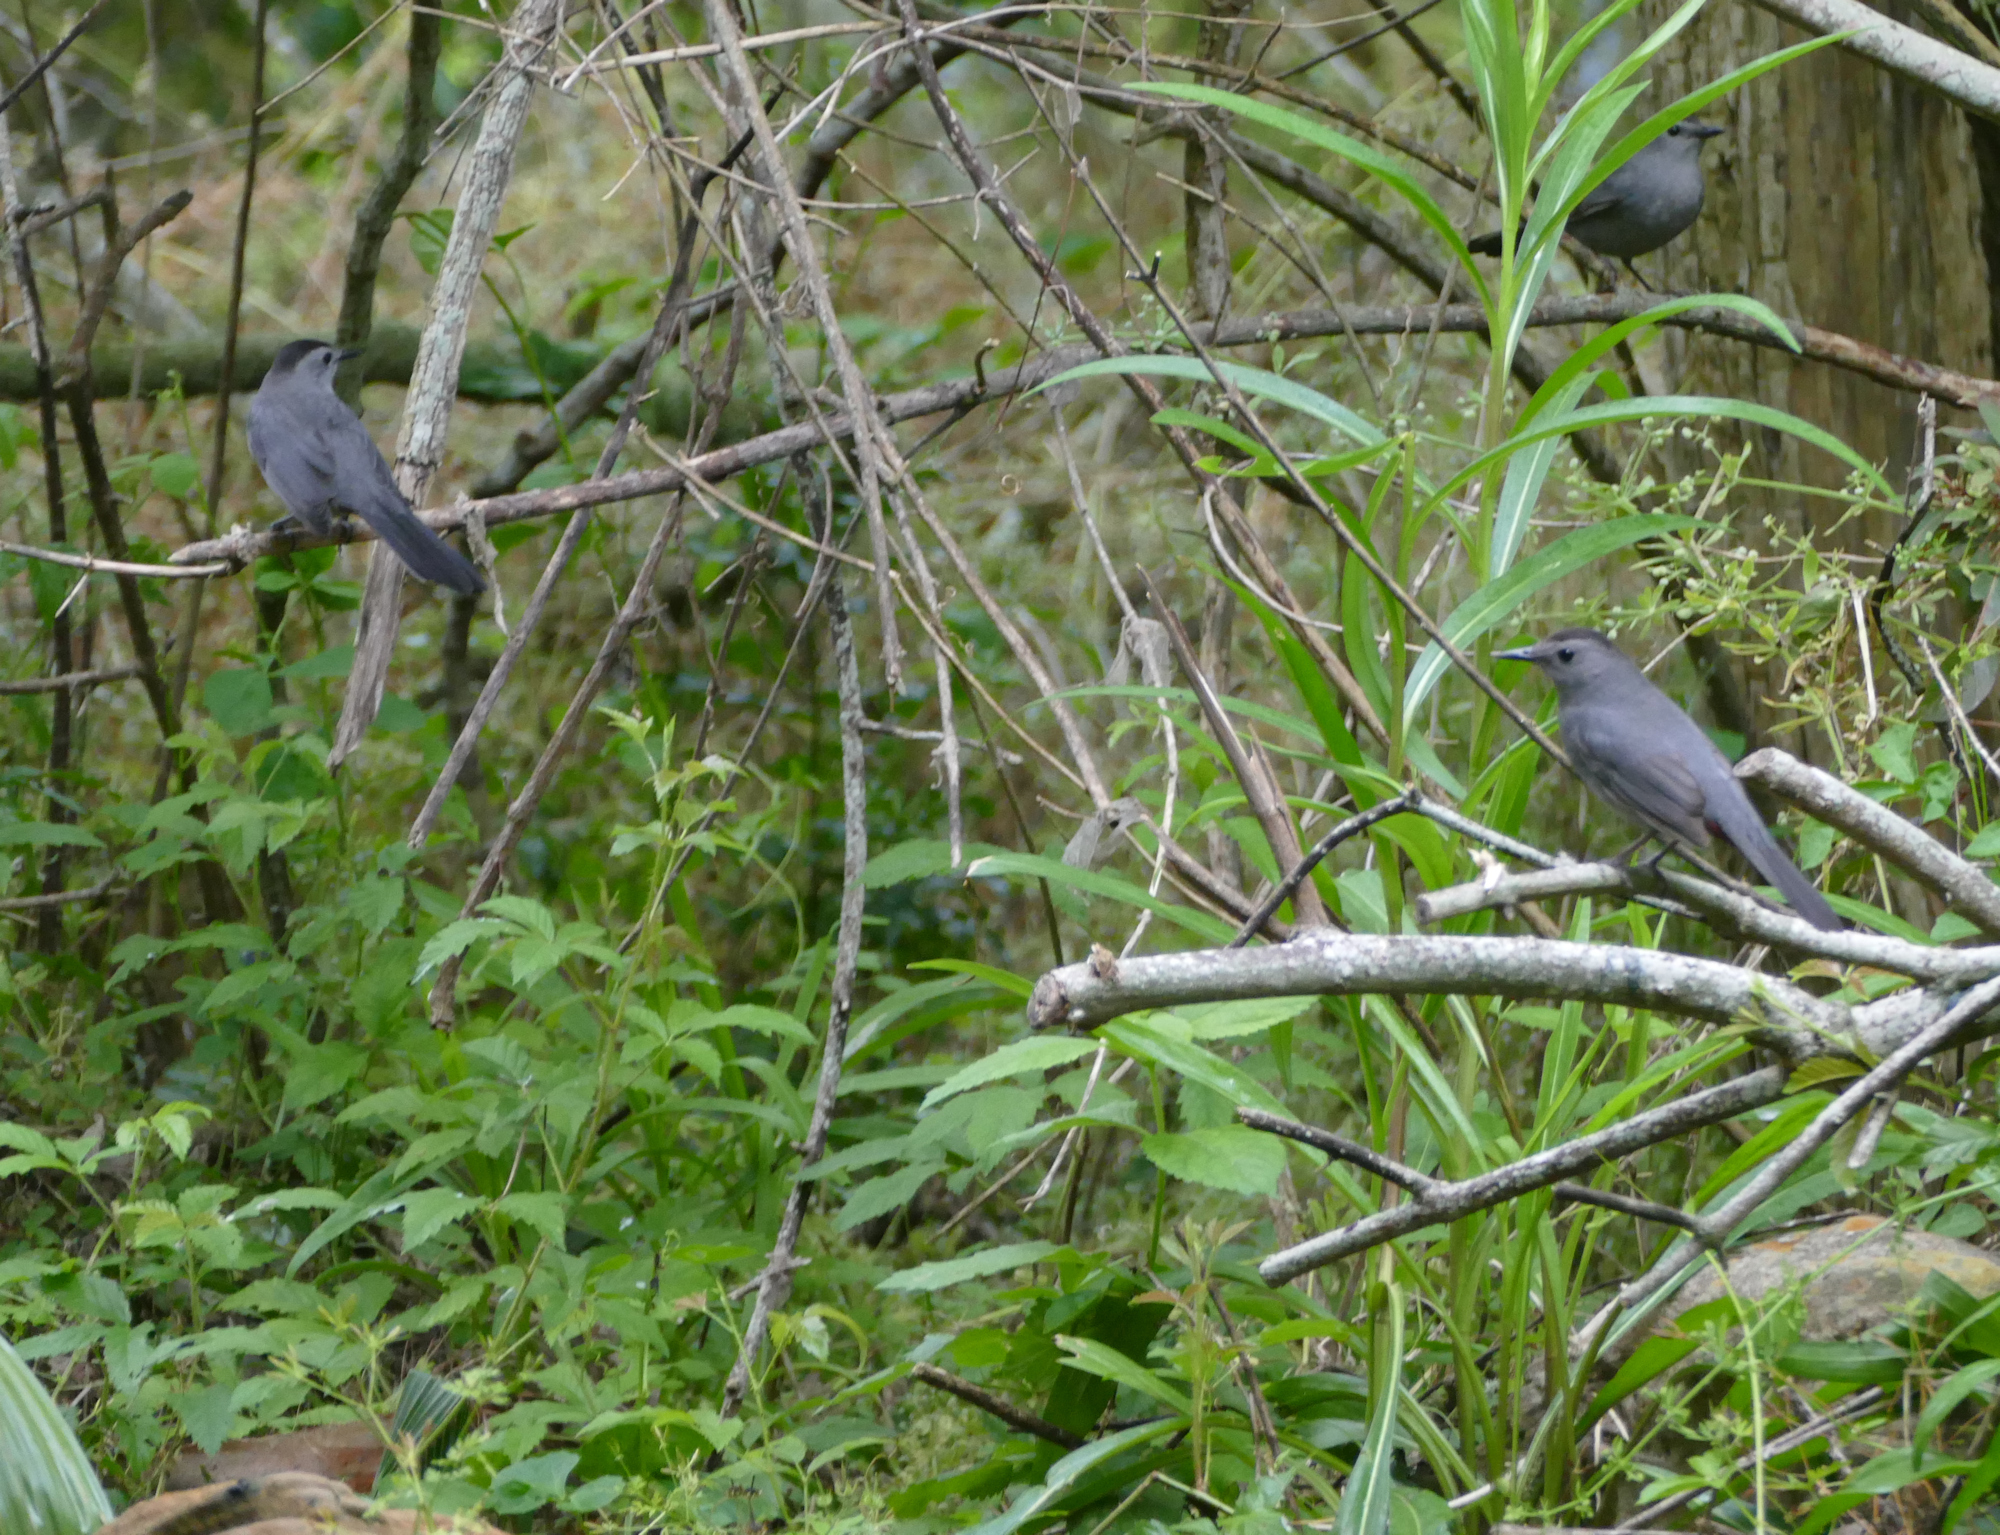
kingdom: Animalia
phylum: Chordata
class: Aves
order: Passeriformes
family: Mimidae
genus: Dumetella
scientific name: Dumetella carolinensis
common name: Gray catbird
